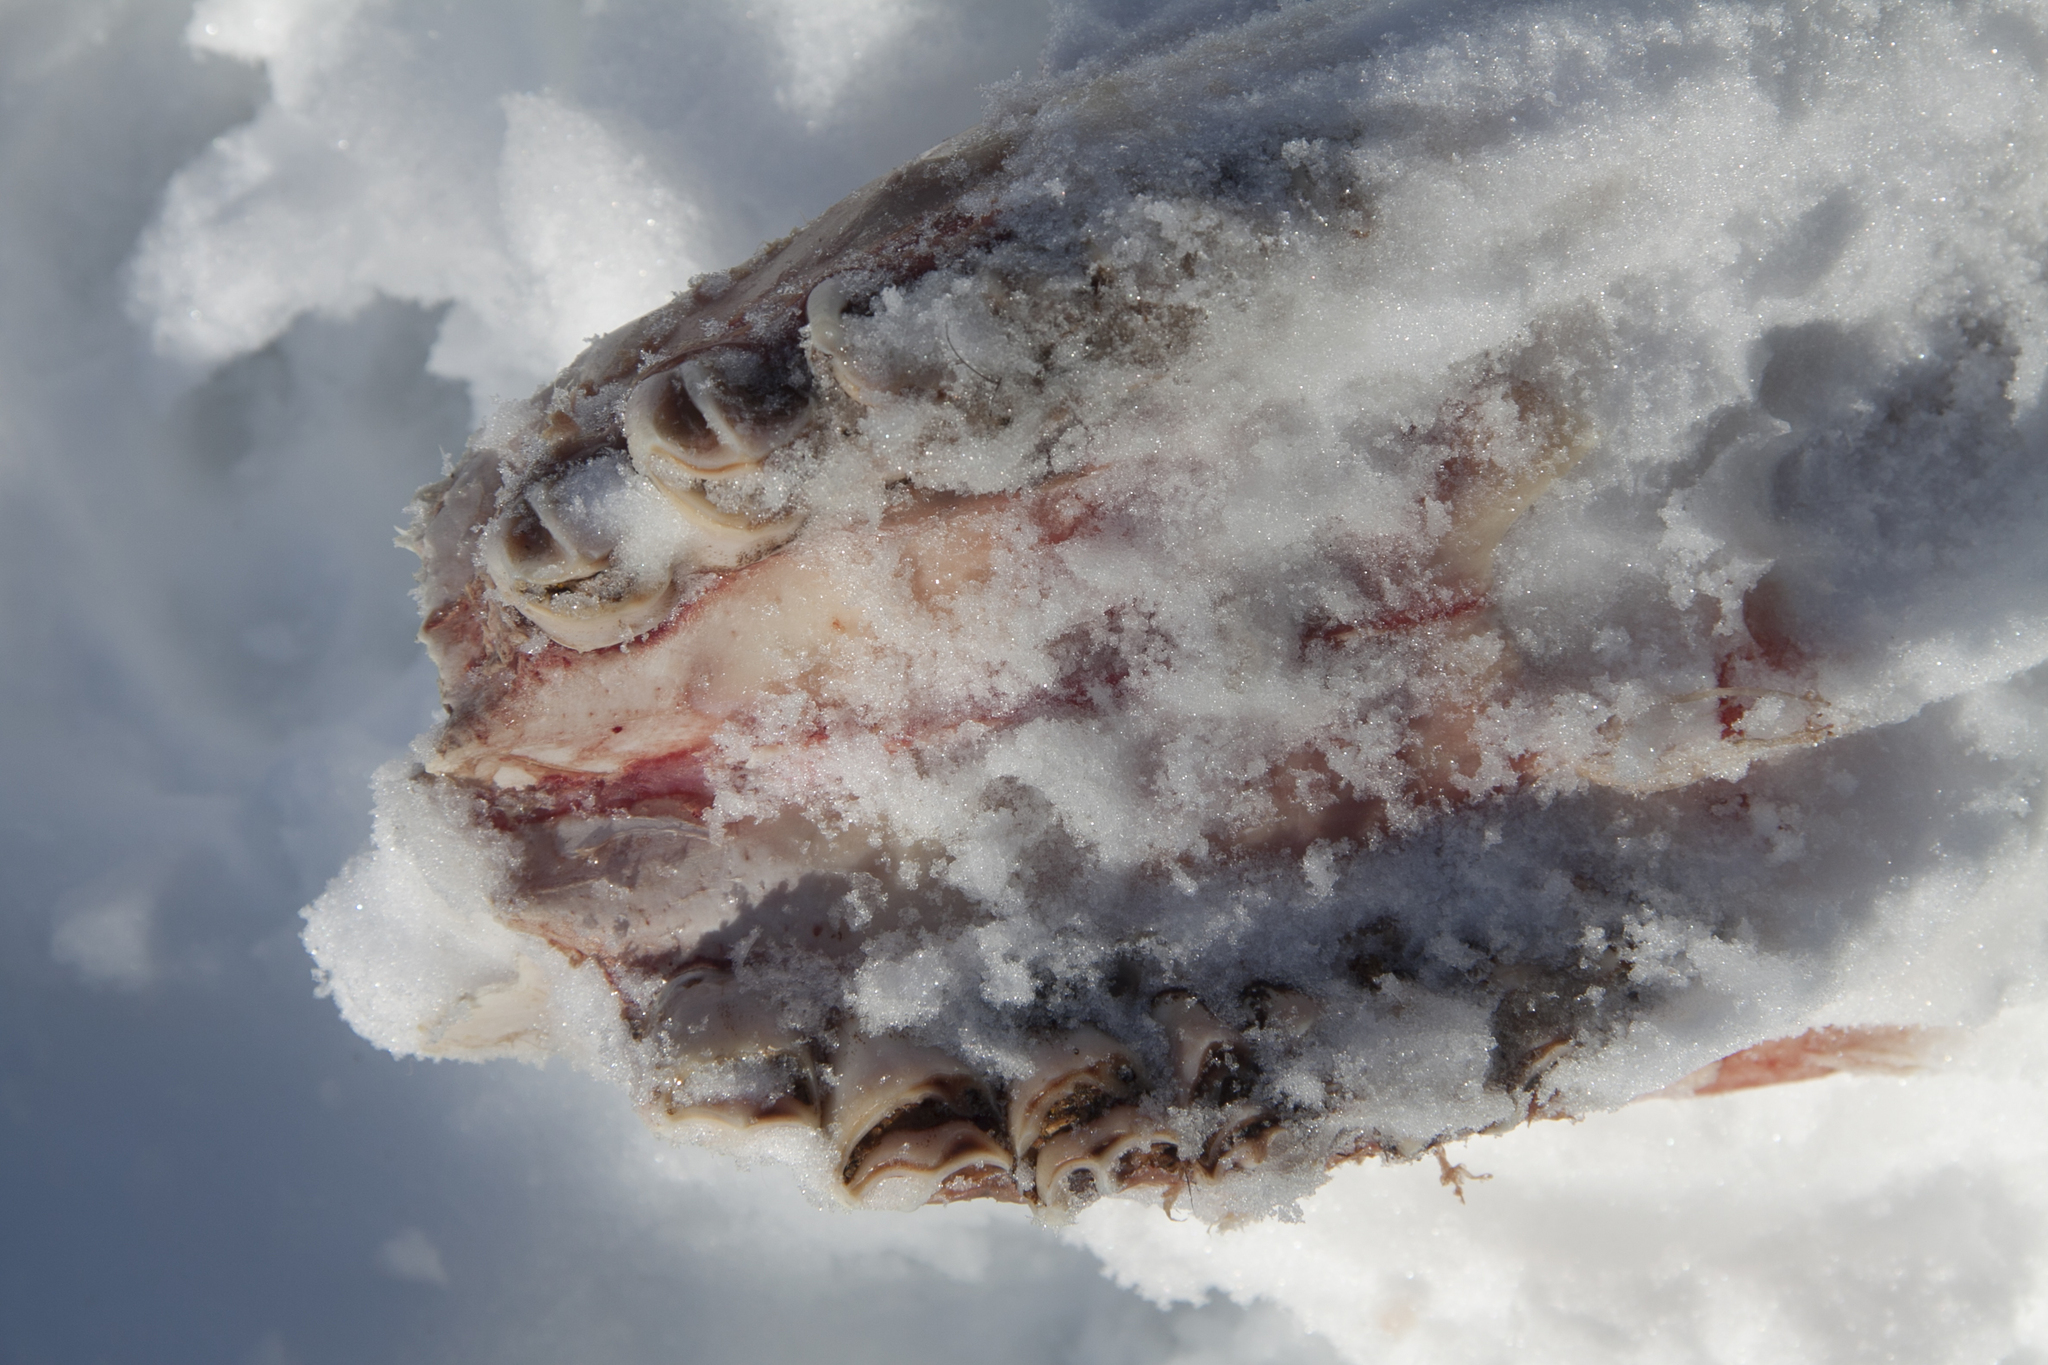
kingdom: Animalia
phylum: Chordata
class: Mammalia
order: Artiodactyla
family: Cervidae
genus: Alces
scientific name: Alces alces
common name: Moose
